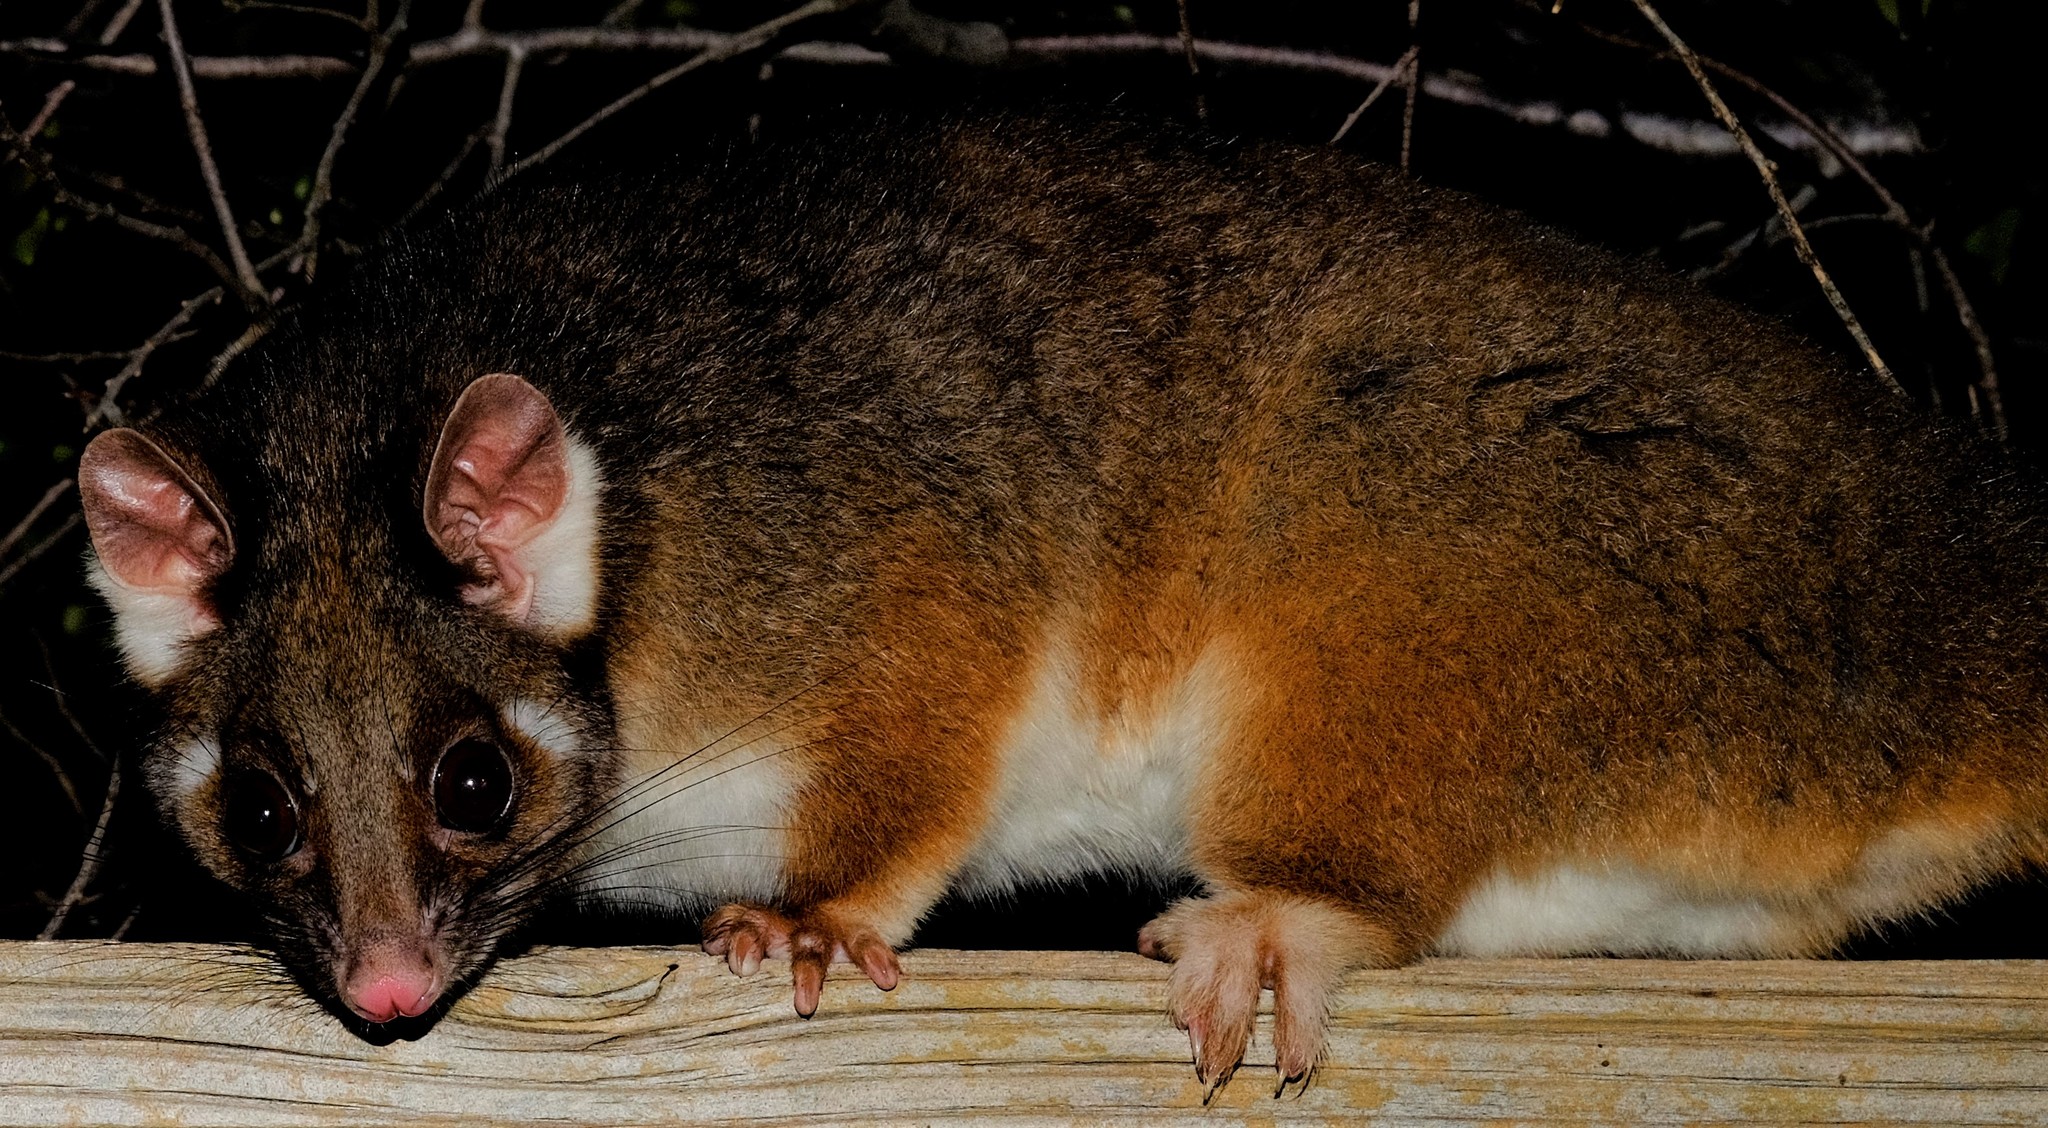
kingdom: Animalia
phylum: Chordata
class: Mammalia
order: Diprotodontia
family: Pseudocheiridae
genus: Pseudocheirus
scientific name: Pseudocheirus peregrinus
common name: Common ringtail possum
